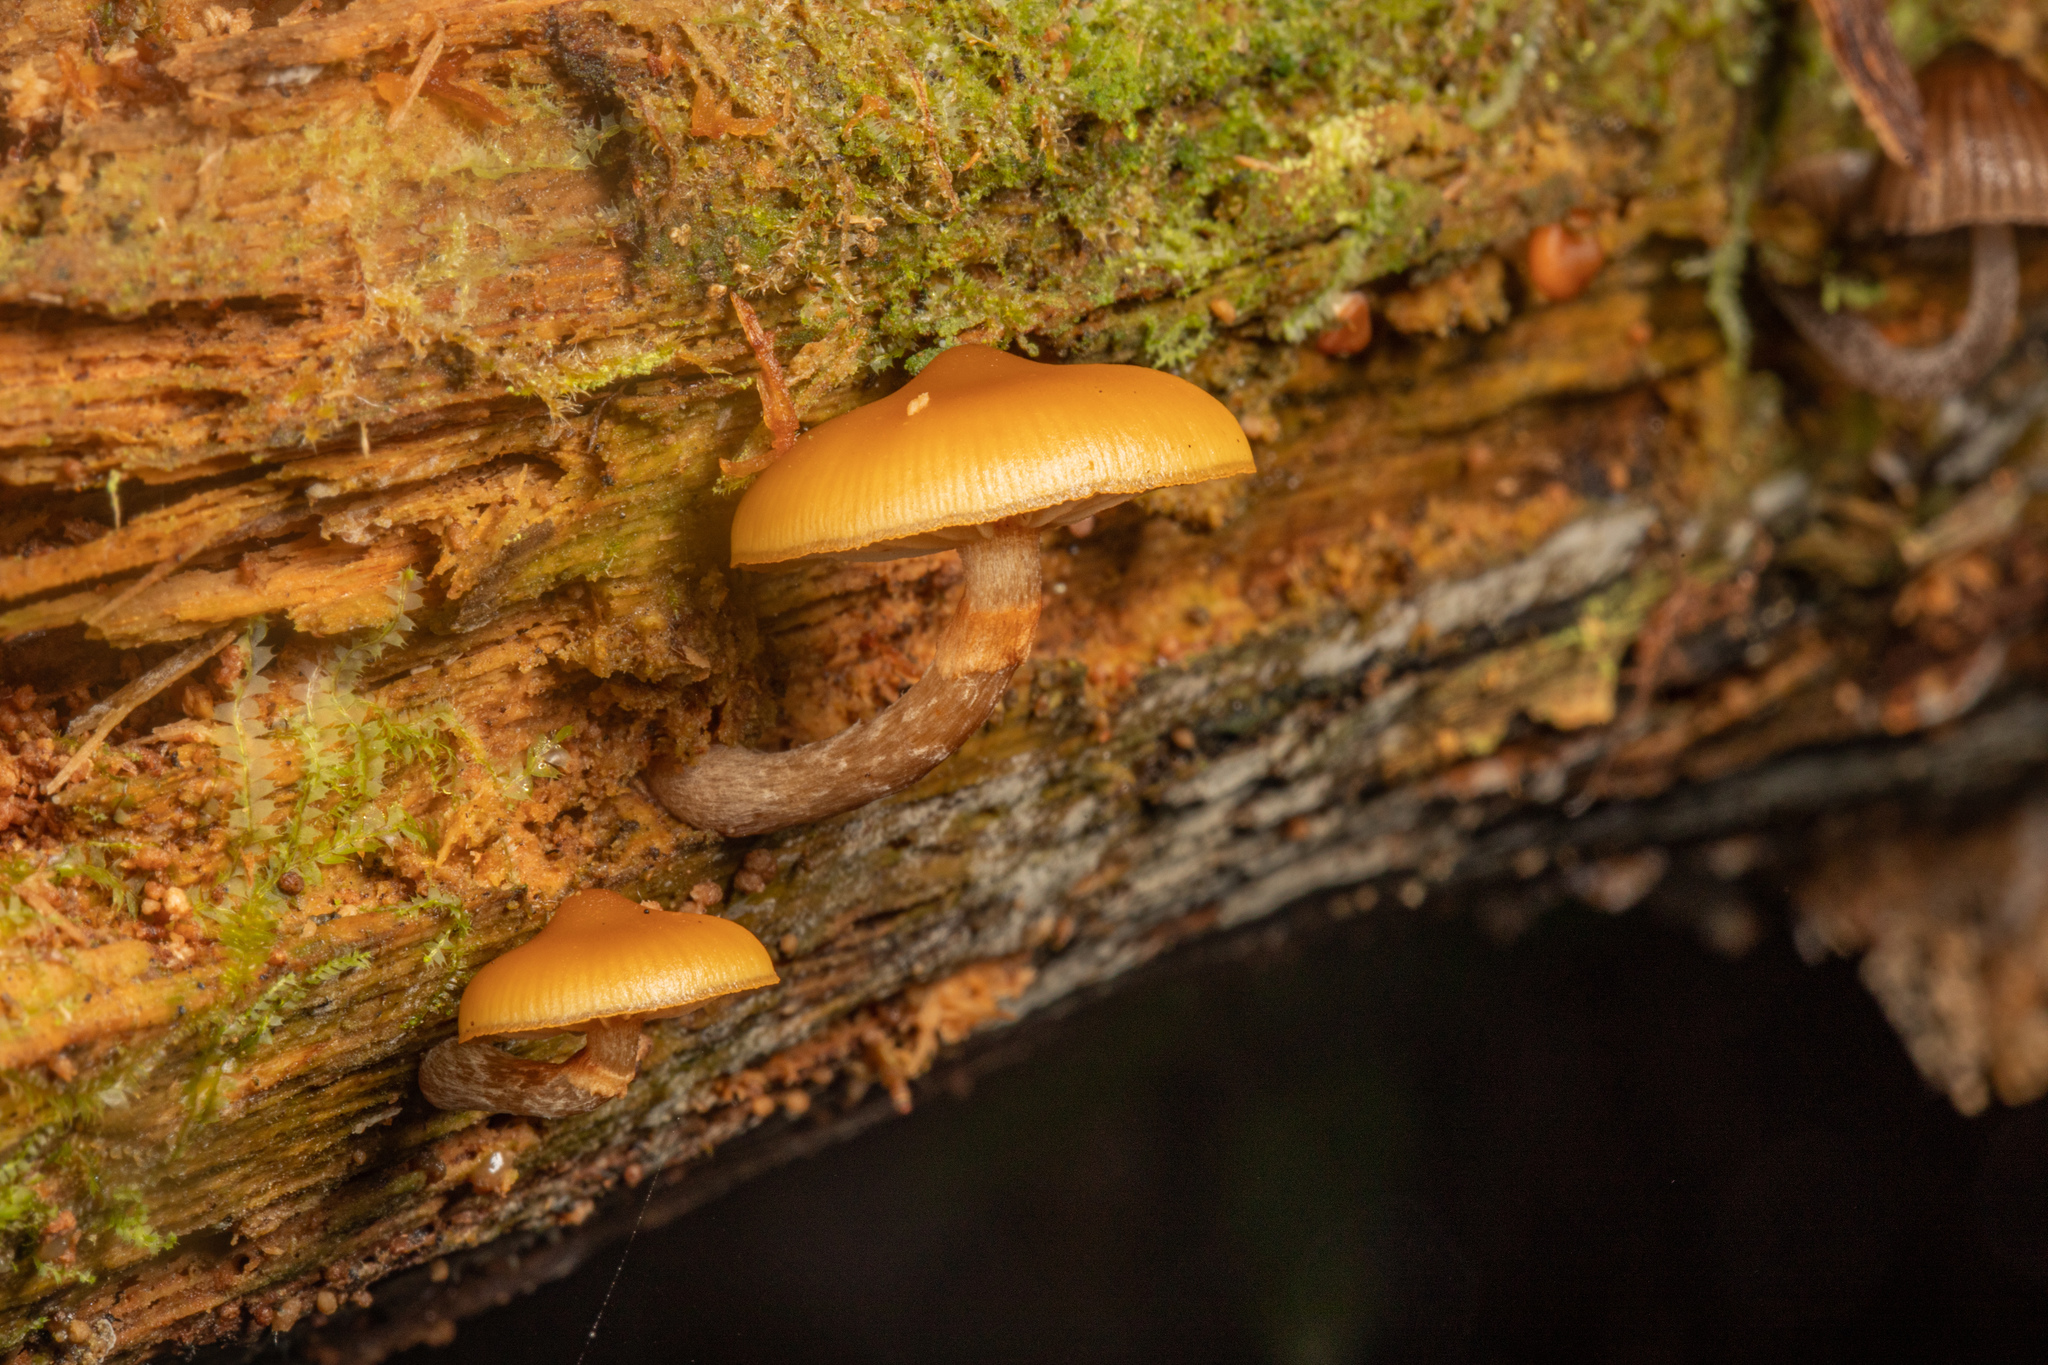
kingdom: Fungi
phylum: Basidiomycota
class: Agaricomycetes
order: Agaricales
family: Hymenogastraceae
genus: Galerina
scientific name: Galerina patagonica
